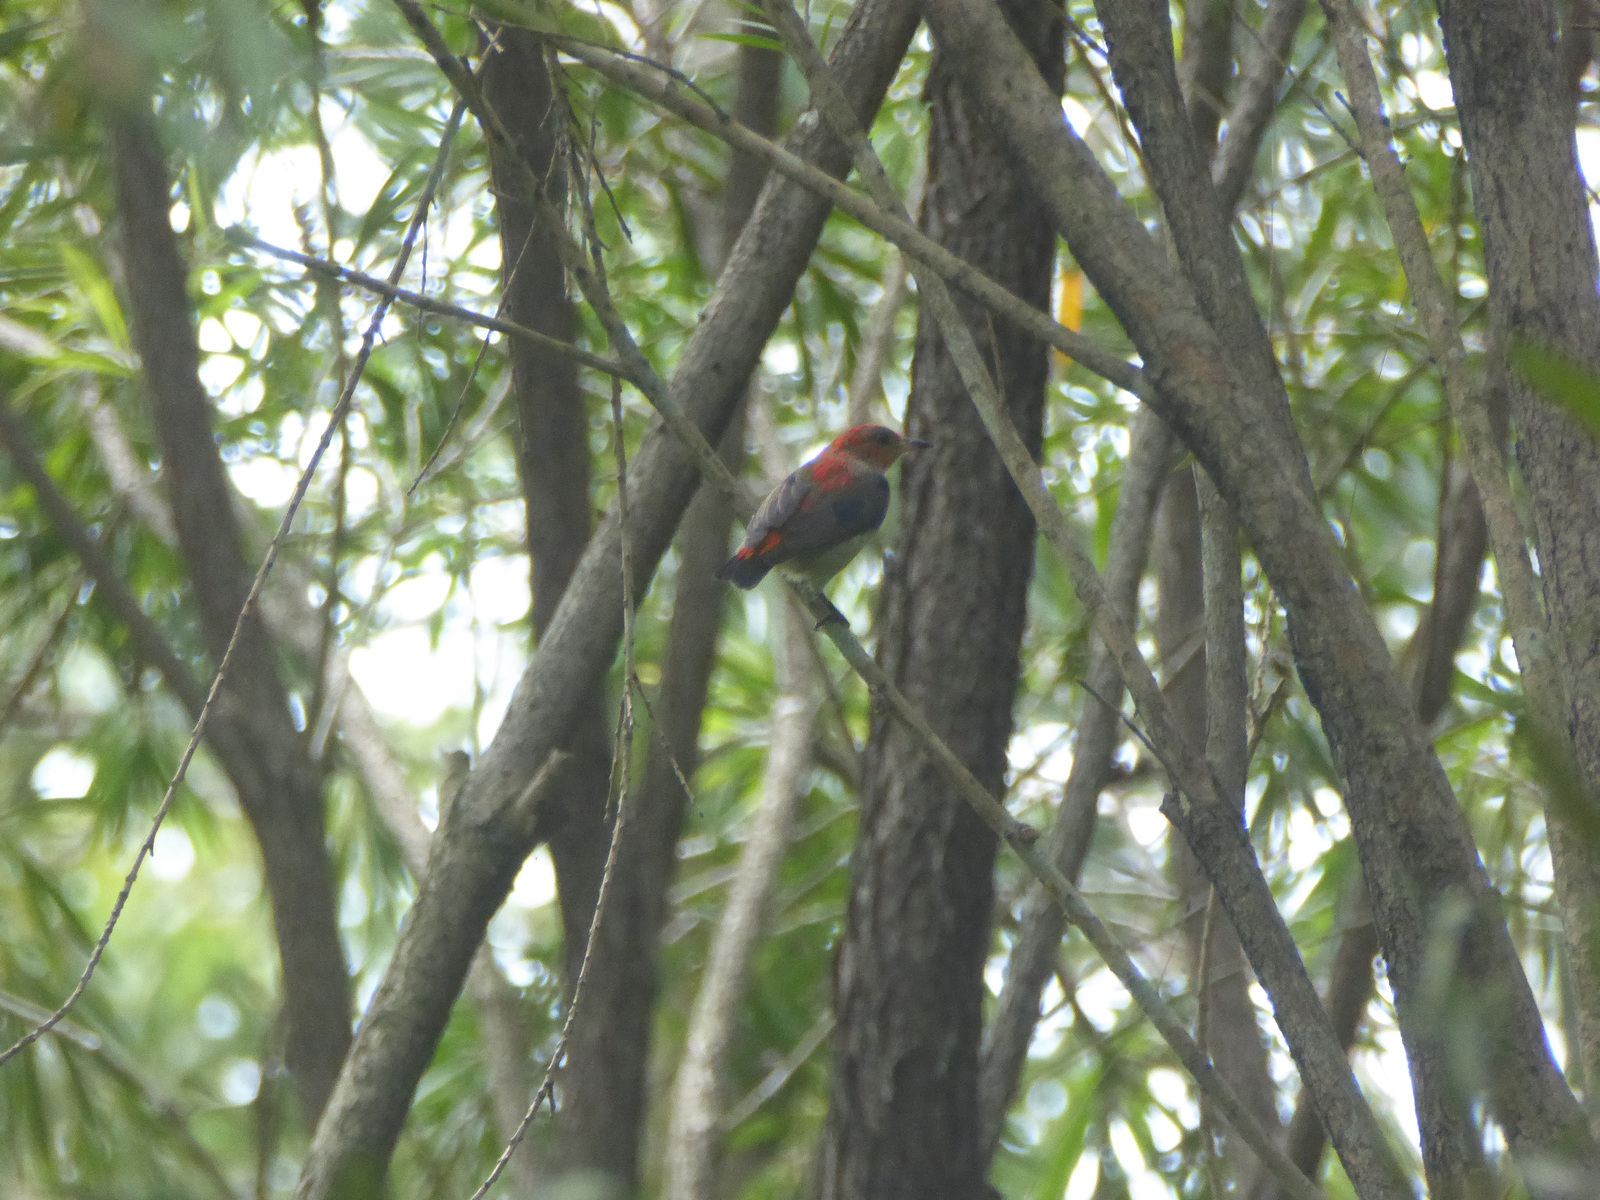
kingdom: Animalia
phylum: Chordata
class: Aves
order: Passeriformes
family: Dicaeidae
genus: Dicaeum
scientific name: Dicaeum trochileum
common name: Scarlet-headed flowerpecker
